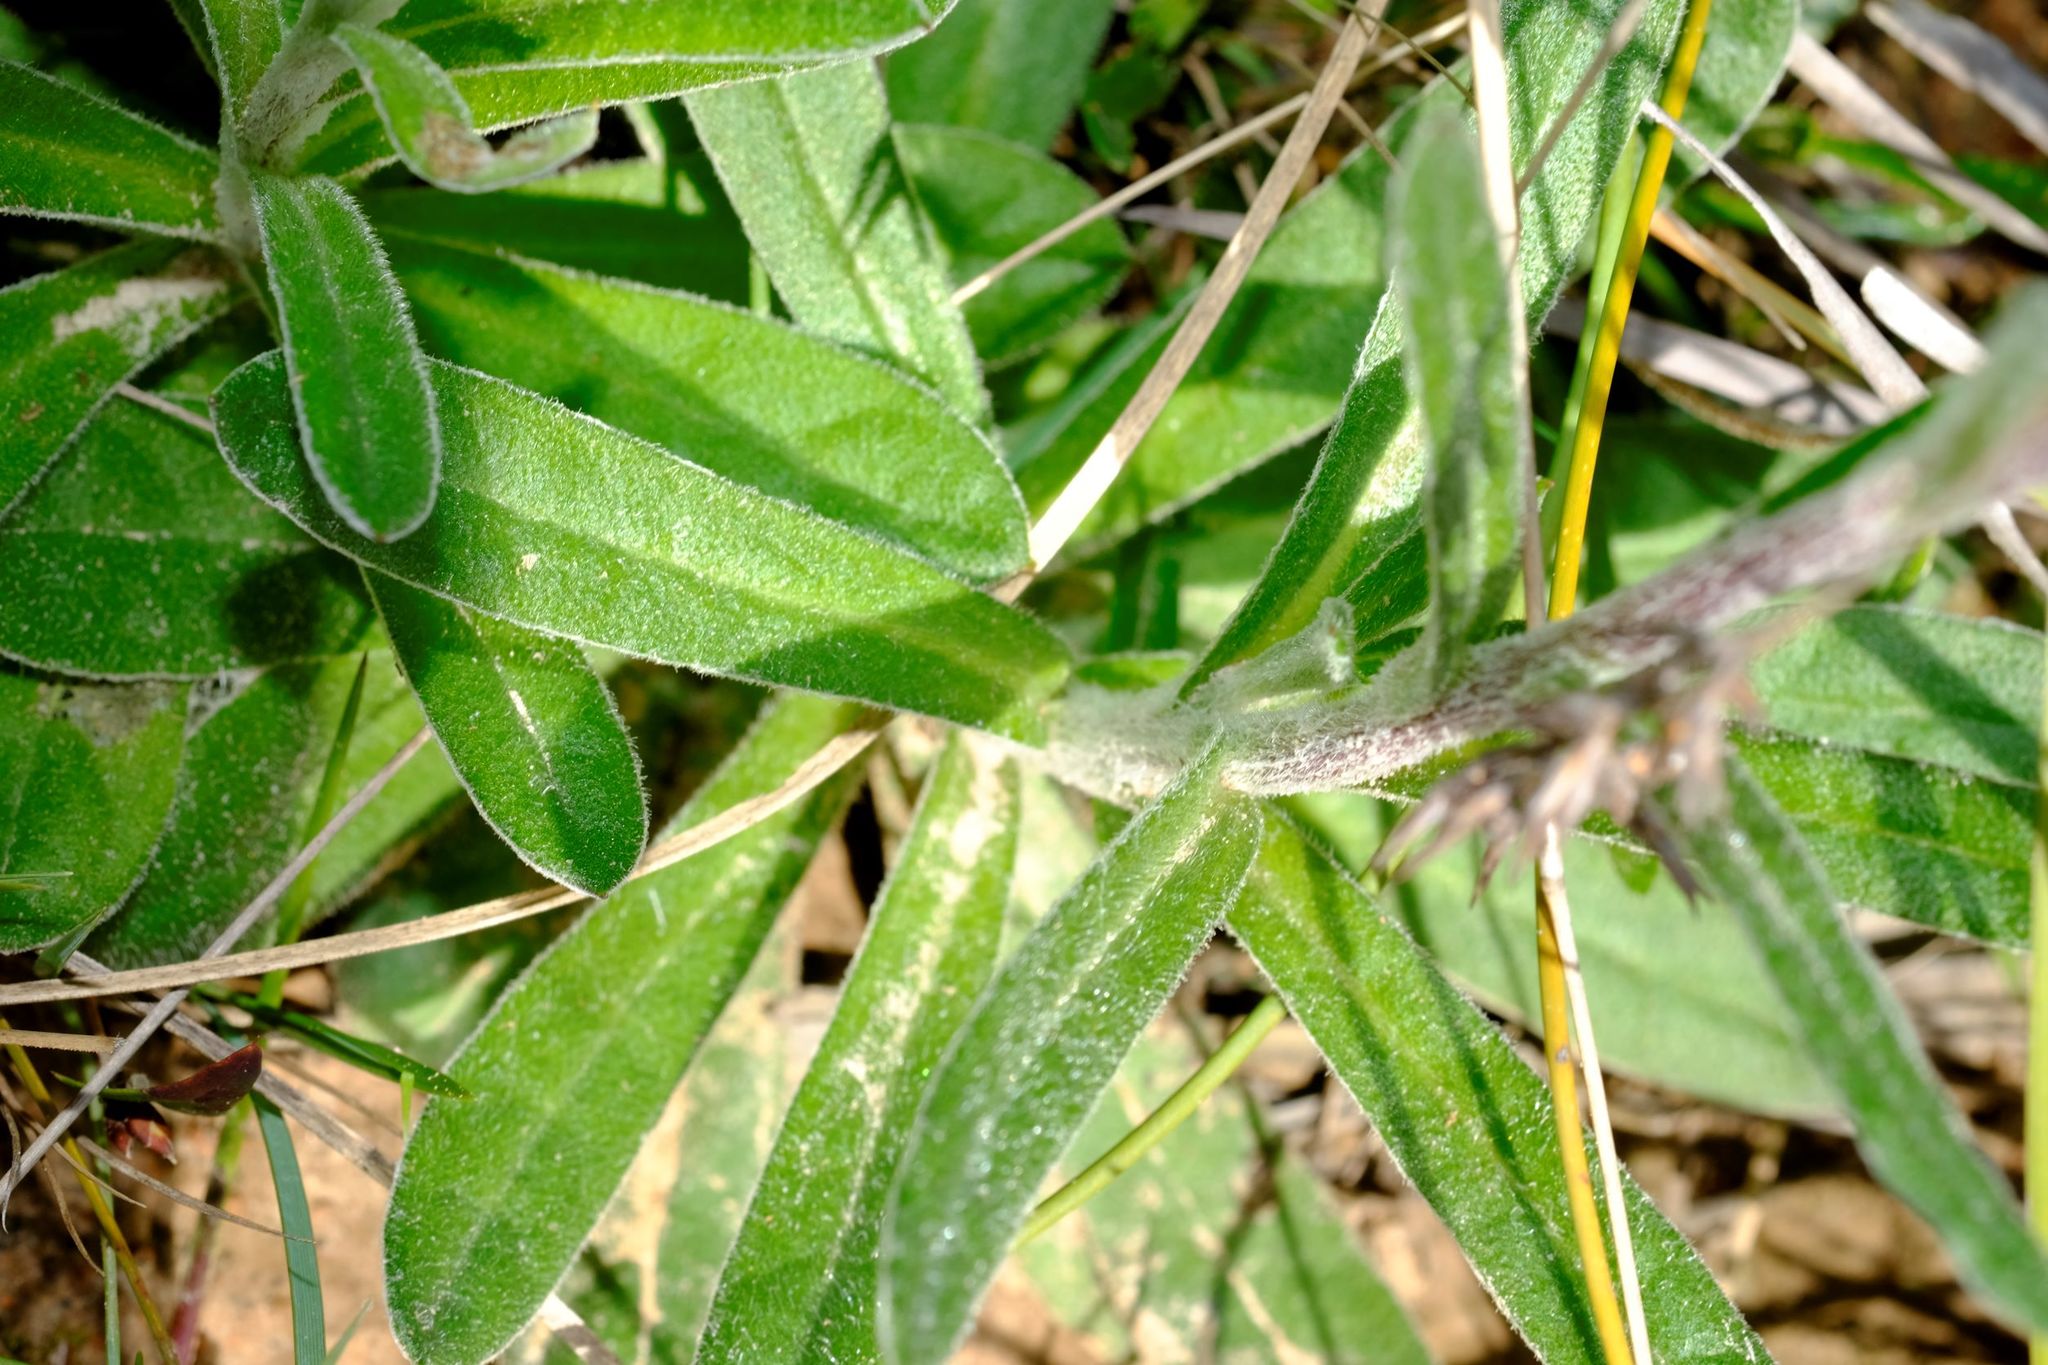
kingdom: Plantae
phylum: Tracheophyta
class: Magnoliopsida
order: Asterales
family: Asteraceae
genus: Coronidium
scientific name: Coronidium scorpioides
